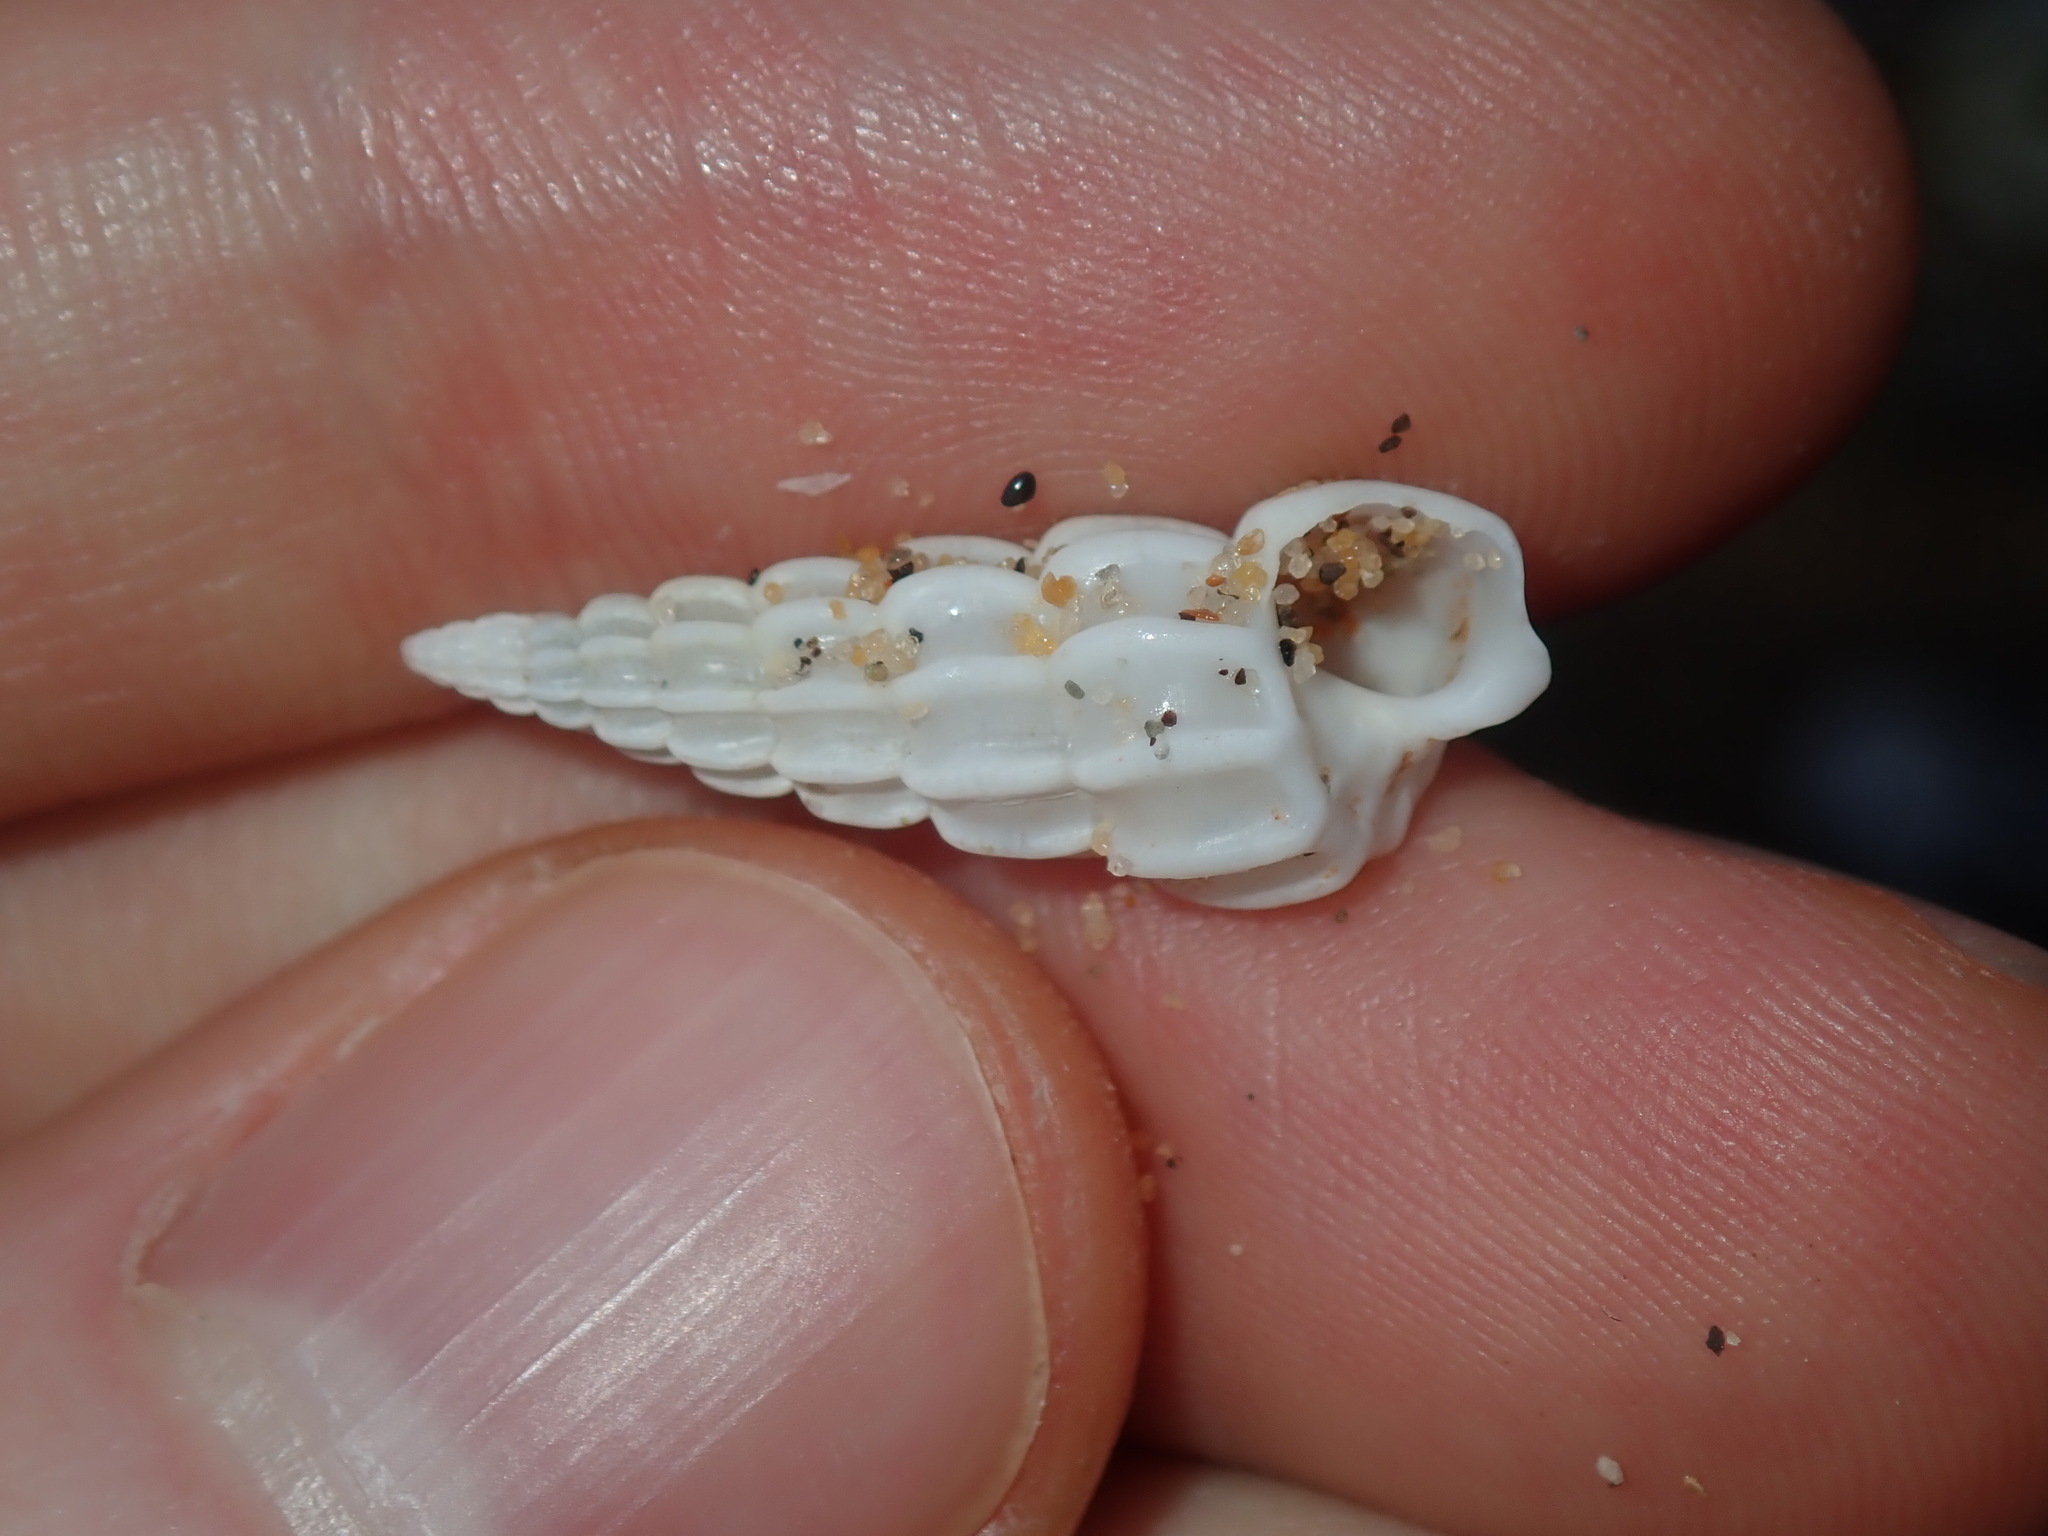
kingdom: Animalia
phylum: Mollusca
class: Gastropoda
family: Epitoniidae
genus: Opalia
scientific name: Opalia australis
